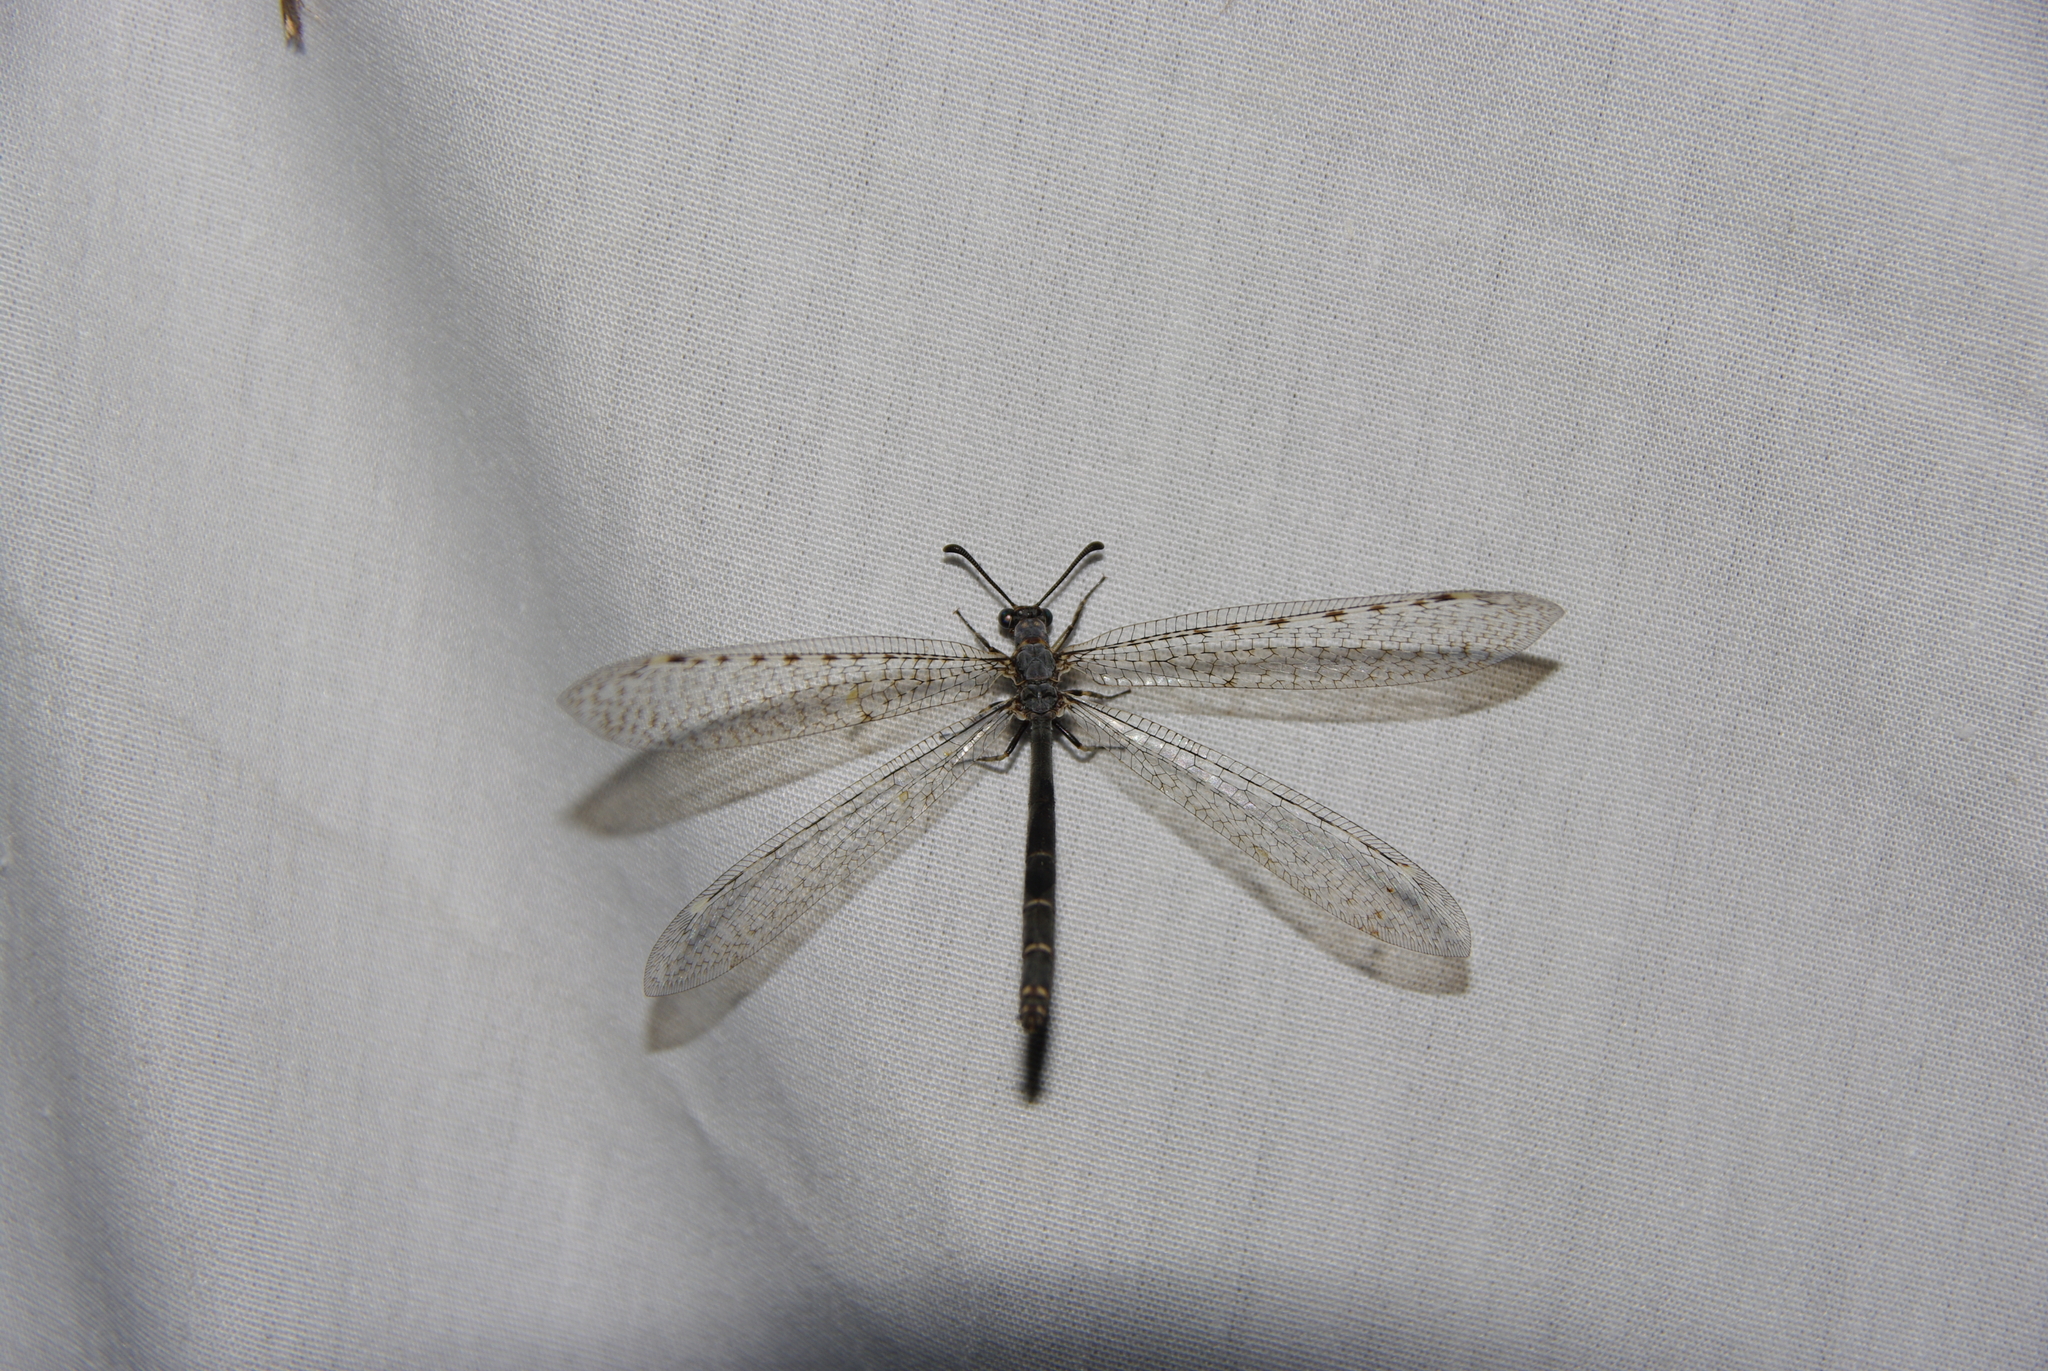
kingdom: Animalia
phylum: Arthropoda
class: Insecta
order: Neuroptera
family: Myrmeleontidae
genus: Myrmeleon
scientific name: Myrmeleon exitialis
